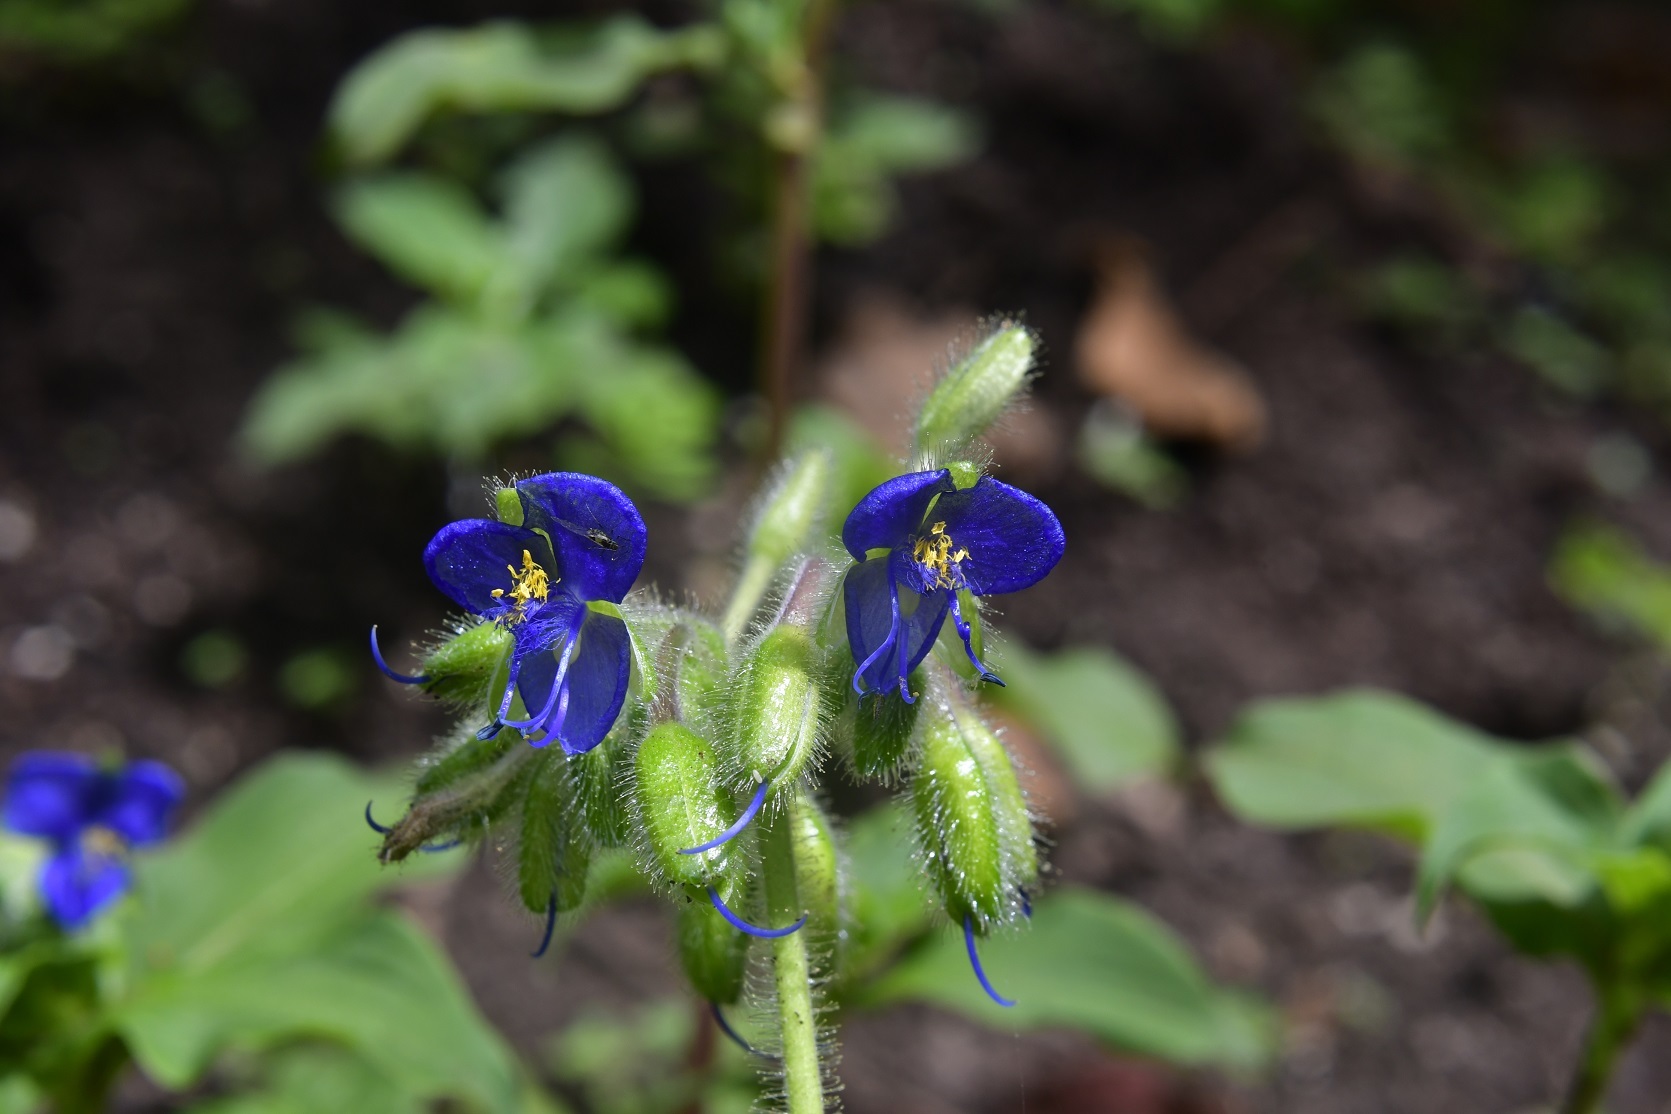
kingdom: Plantae
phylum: Tracheophyta
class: Liliopsida
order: Commelinales
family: Commelinaceae
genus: Tinantia
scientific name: Tinantia erecta
